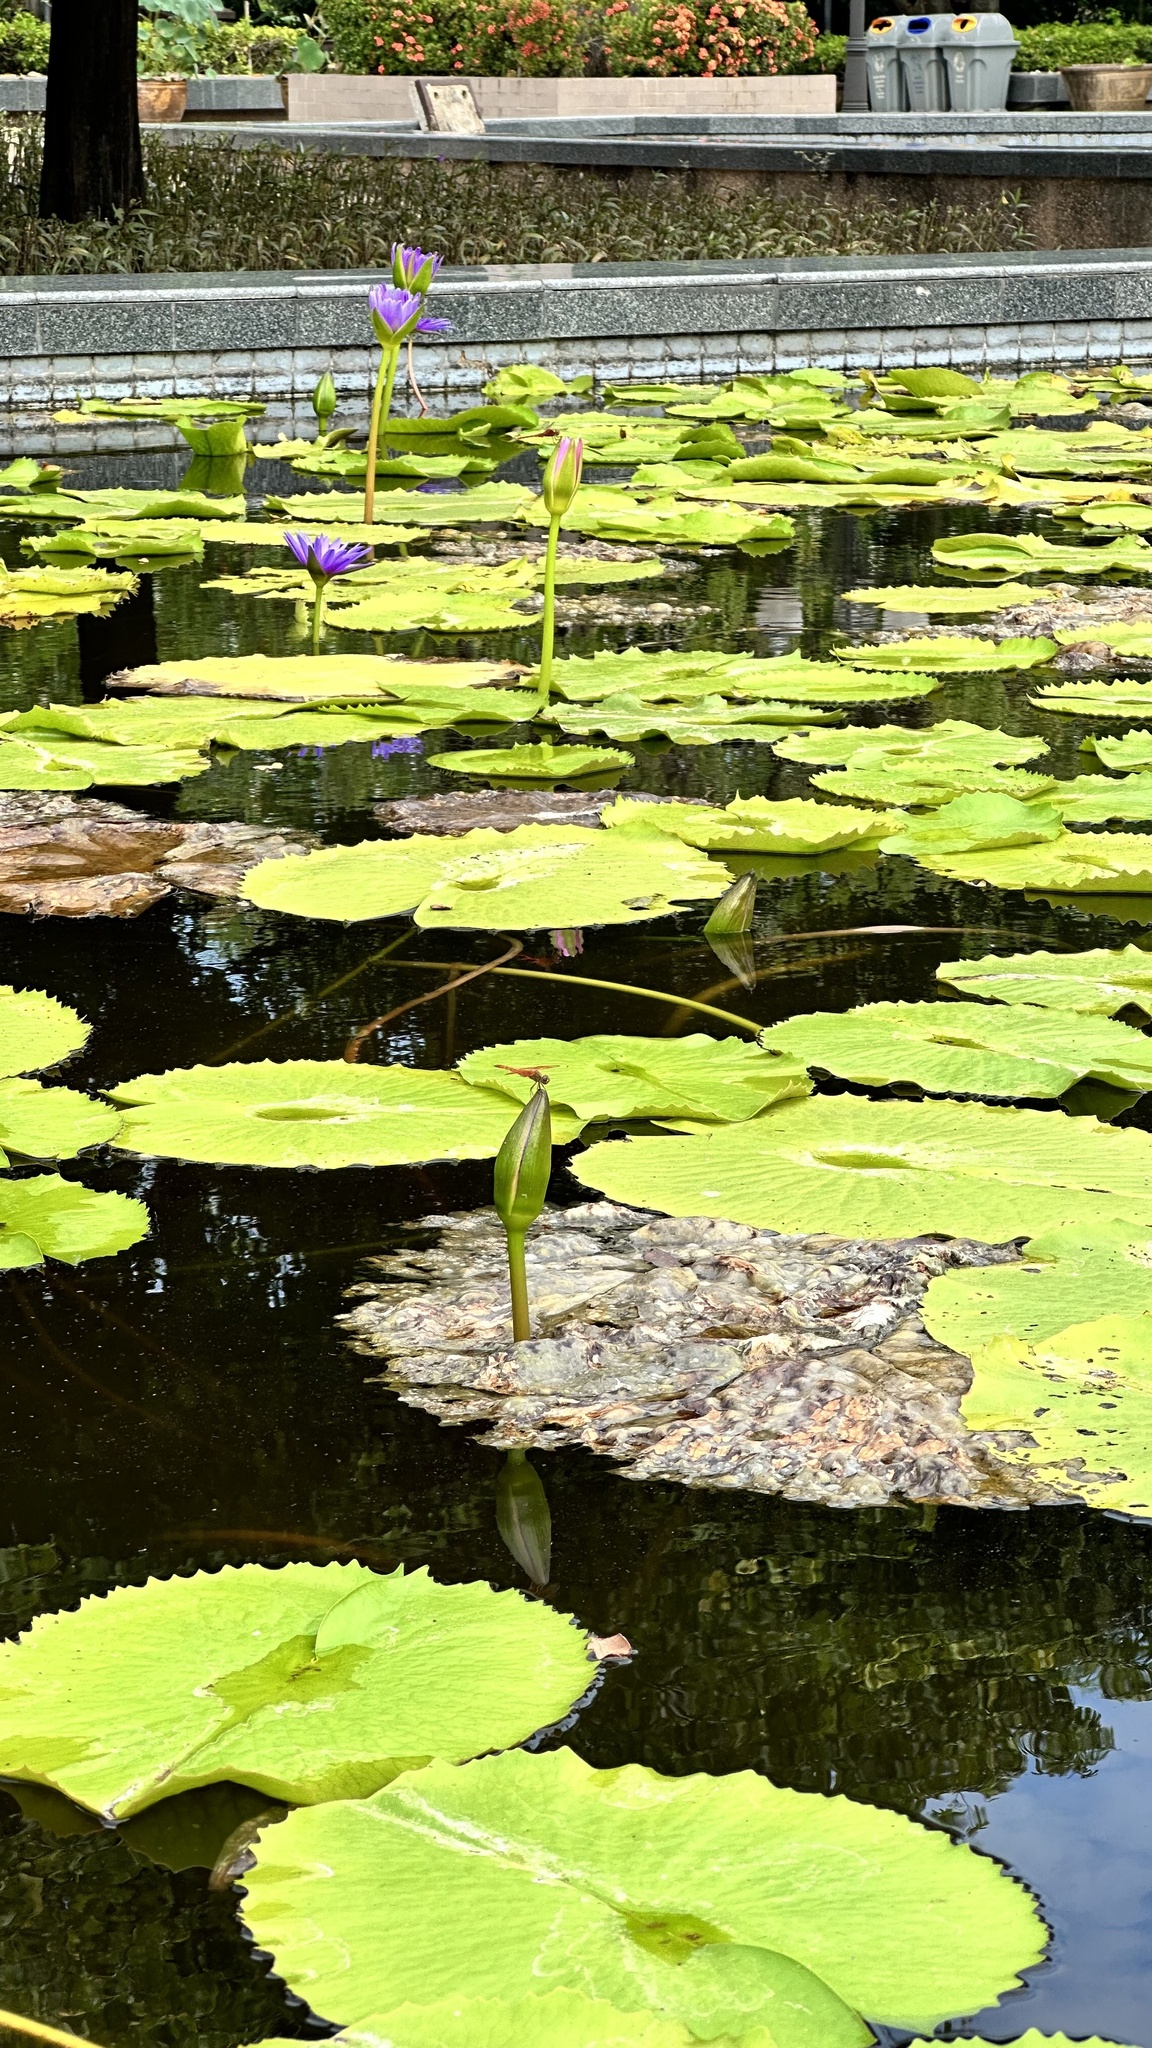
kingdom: Animalia
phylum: Arthropoda
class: Insecta
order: Odonata
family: Libellulidae
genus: Brachythemis
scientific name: Brachythemis contaminata
